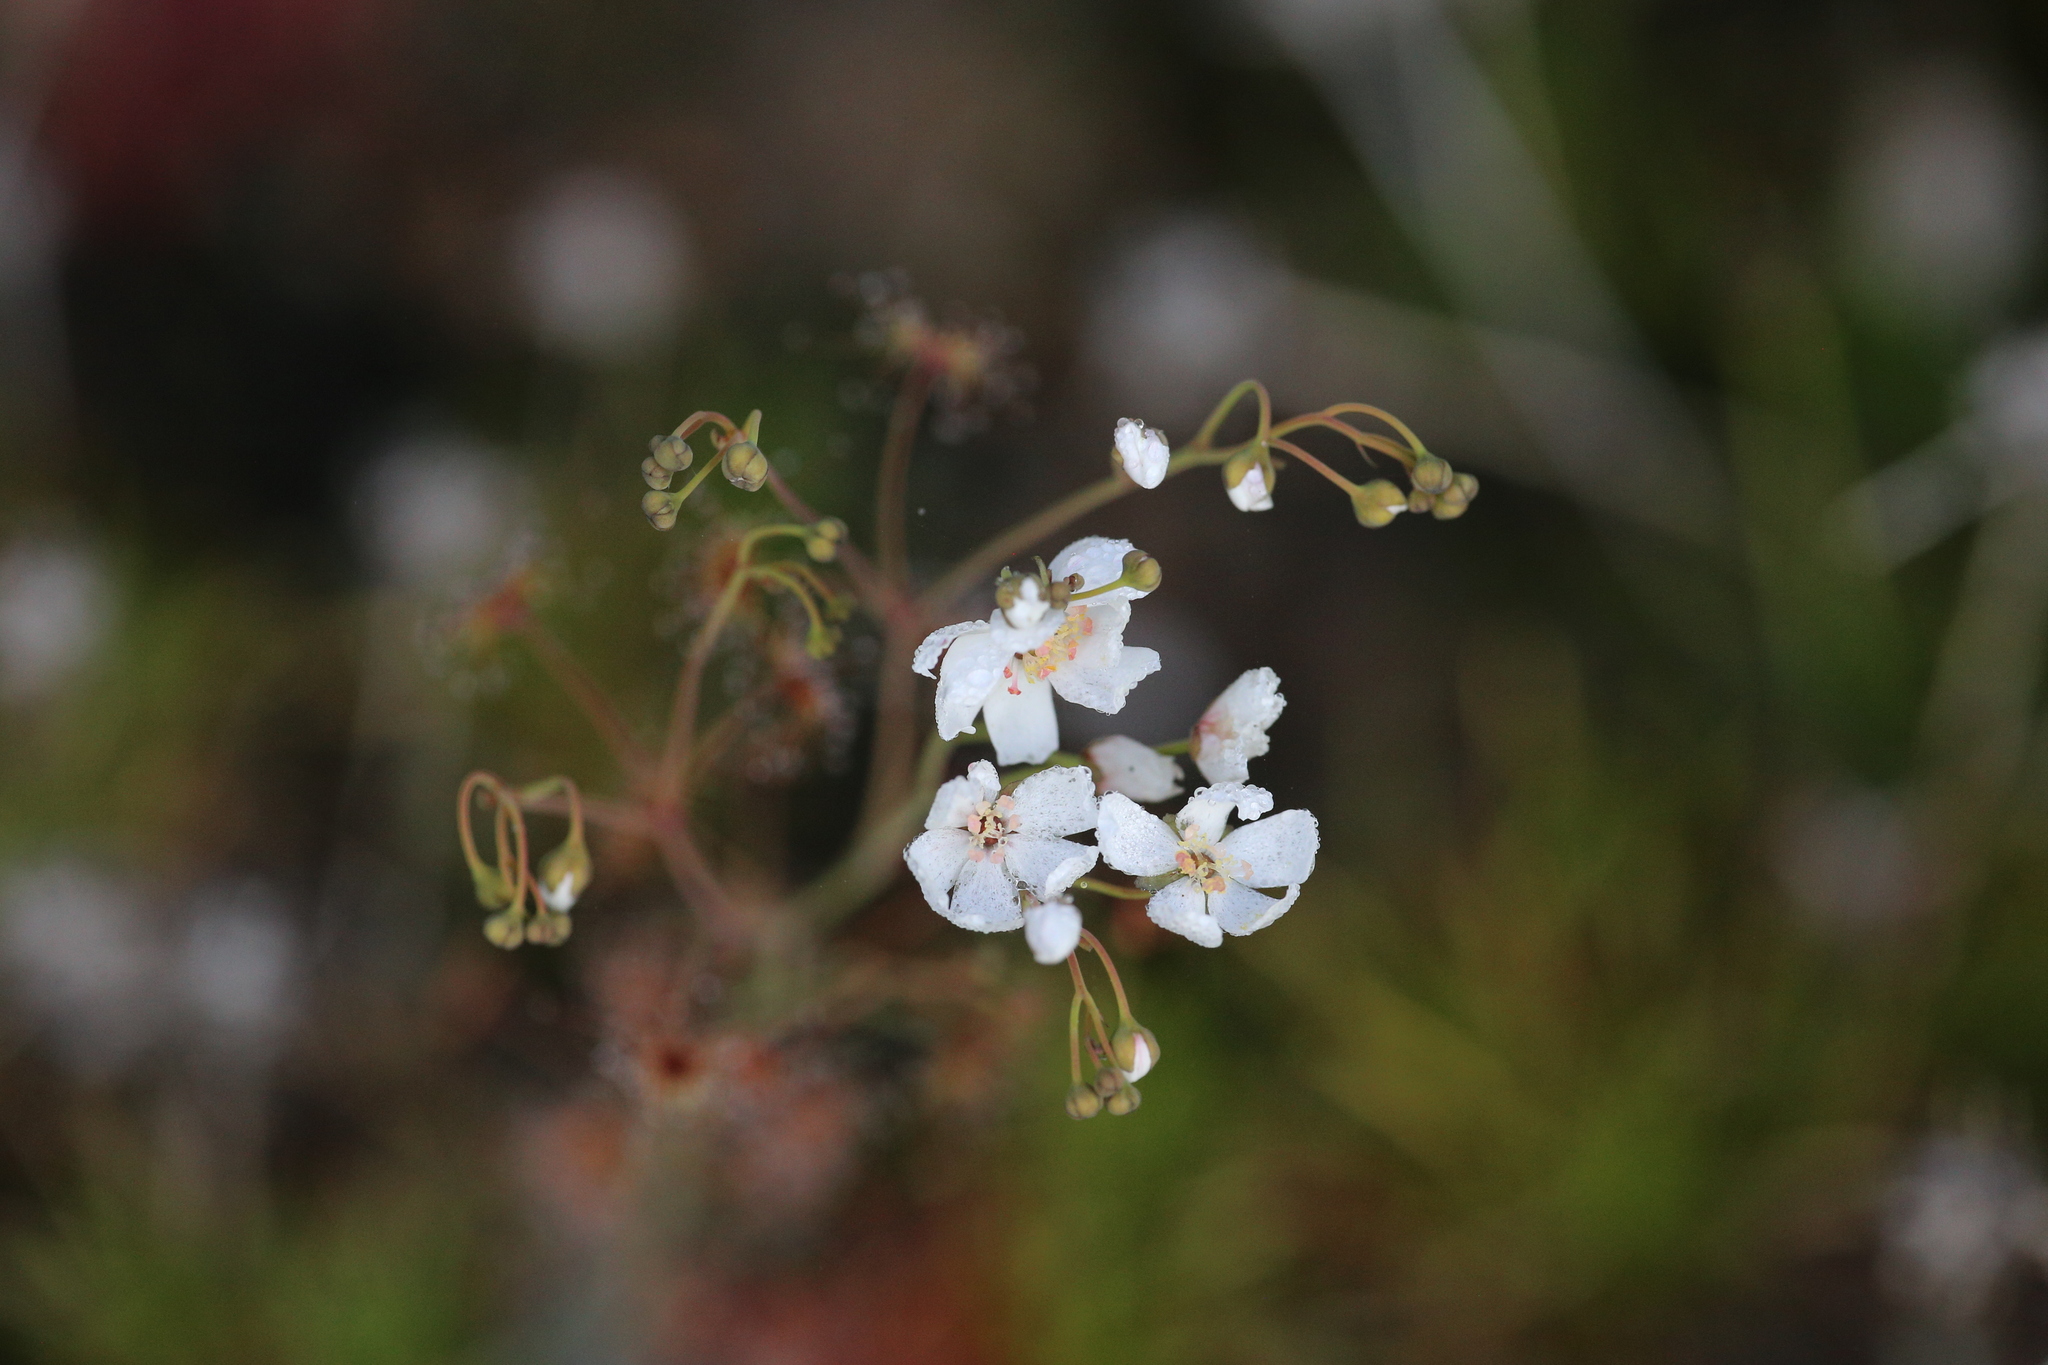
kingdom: Plantae
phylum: Tracheophyta
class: Magnoliopsida
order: Caryophyllales
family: Droseraceae
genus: Drosera
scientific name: Drosera graniticola
